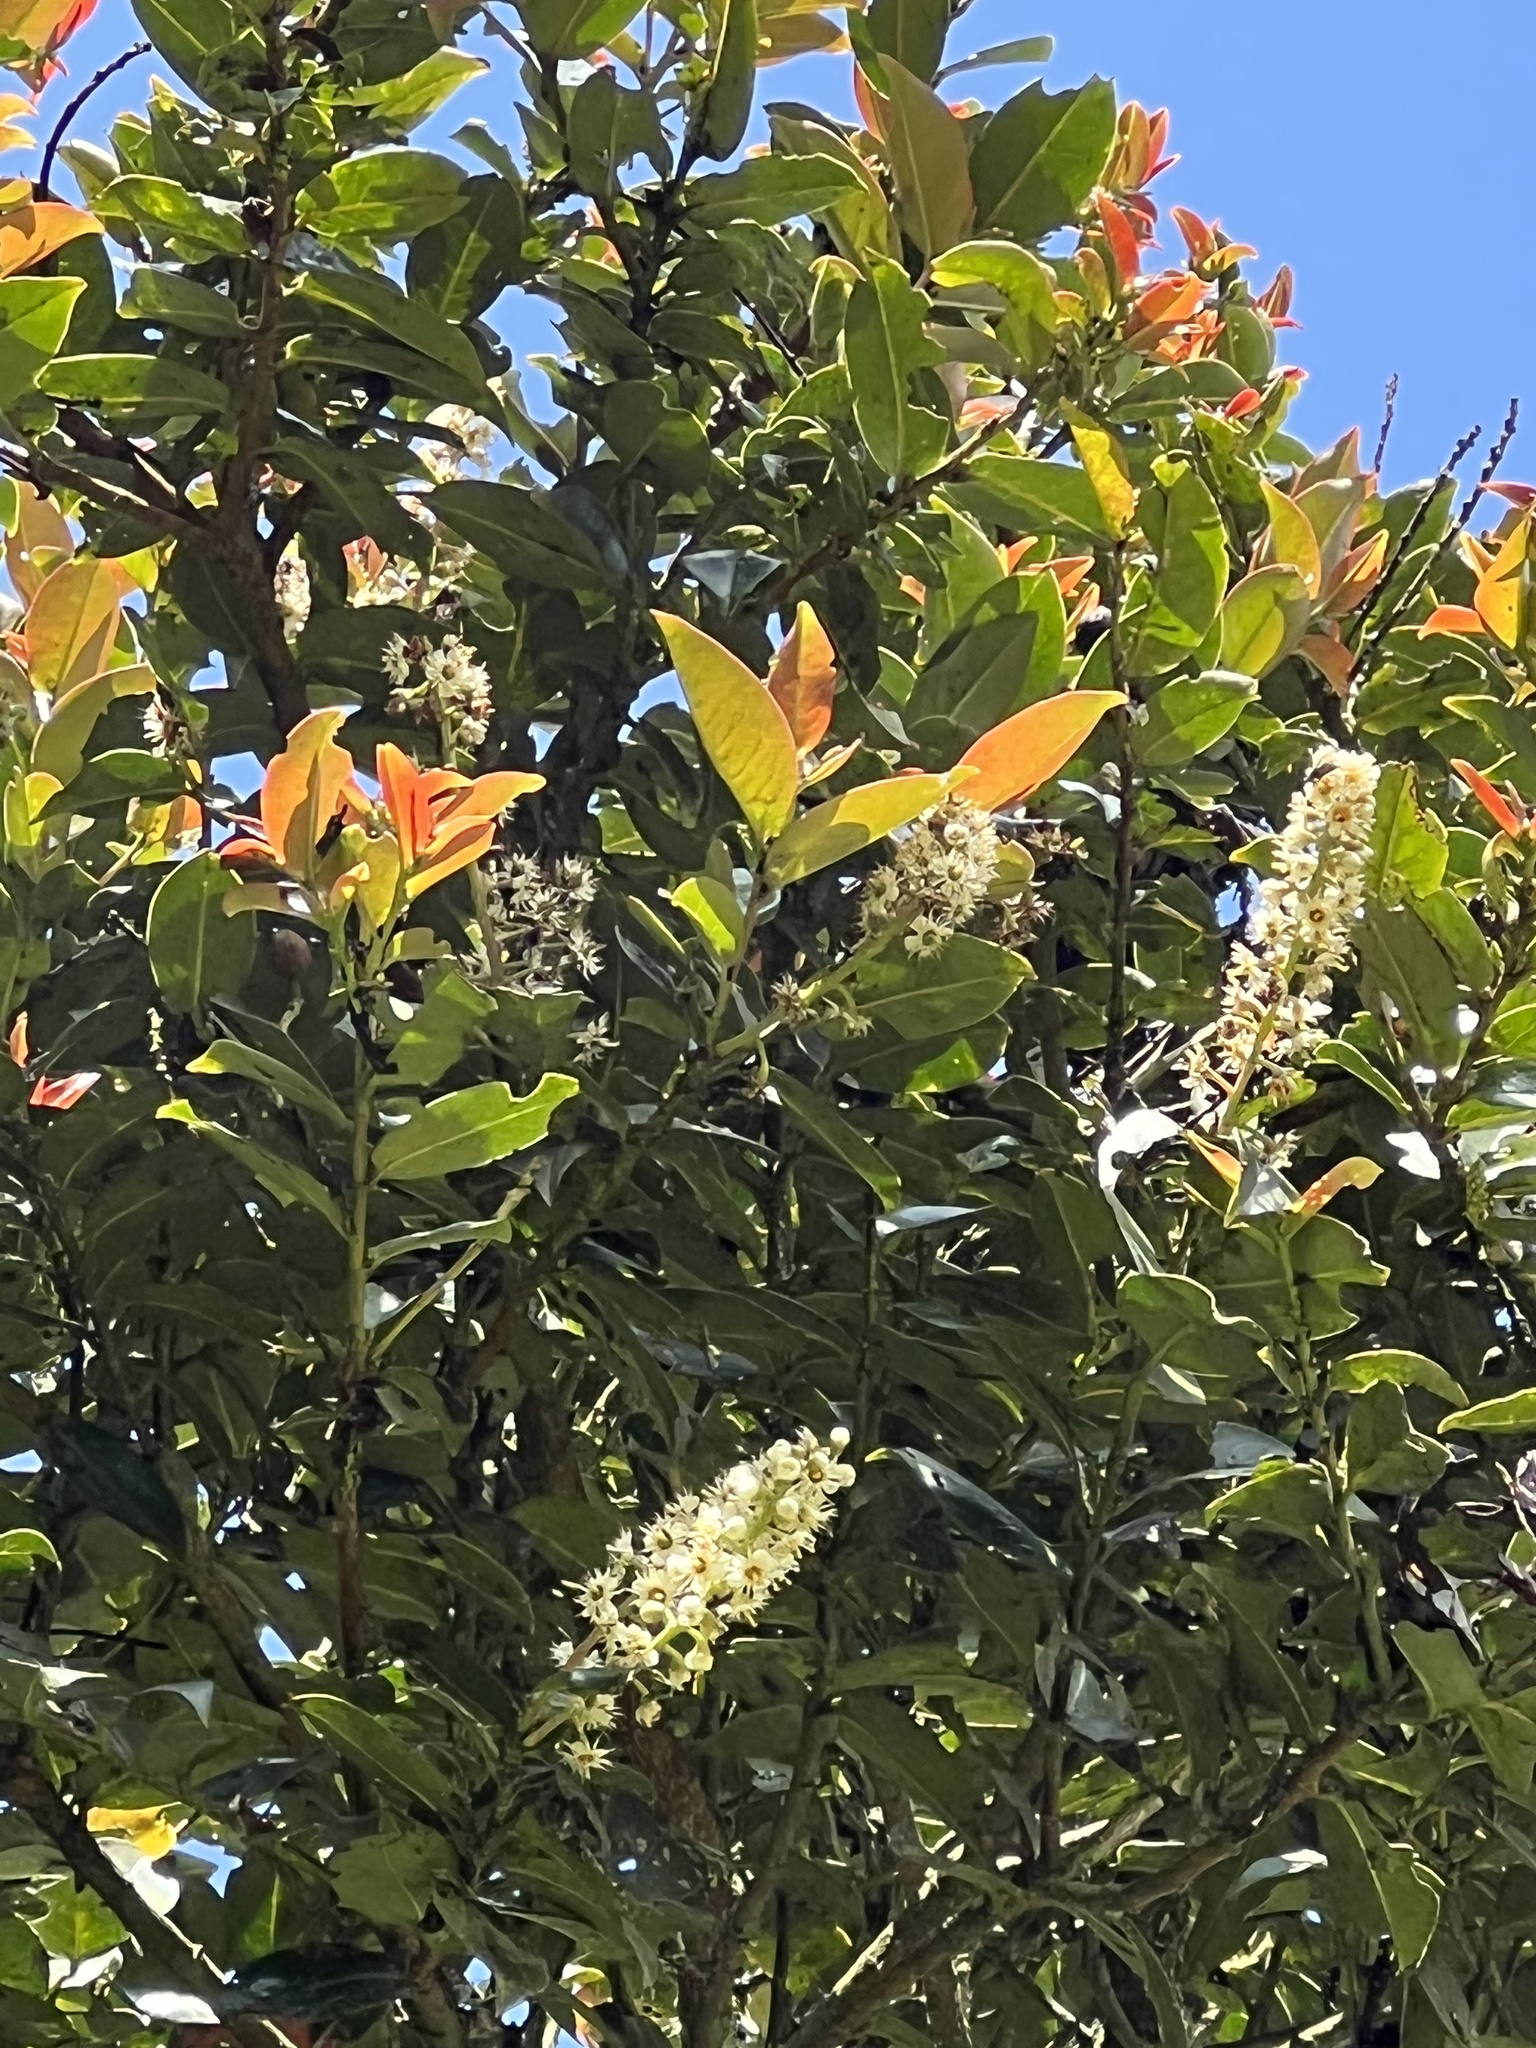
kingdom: Plantae
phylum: Tracheophyta
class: Magnoliopsida
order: Rosales
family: Rosaceae
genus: Prunus
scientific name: Prunus buxifolia
